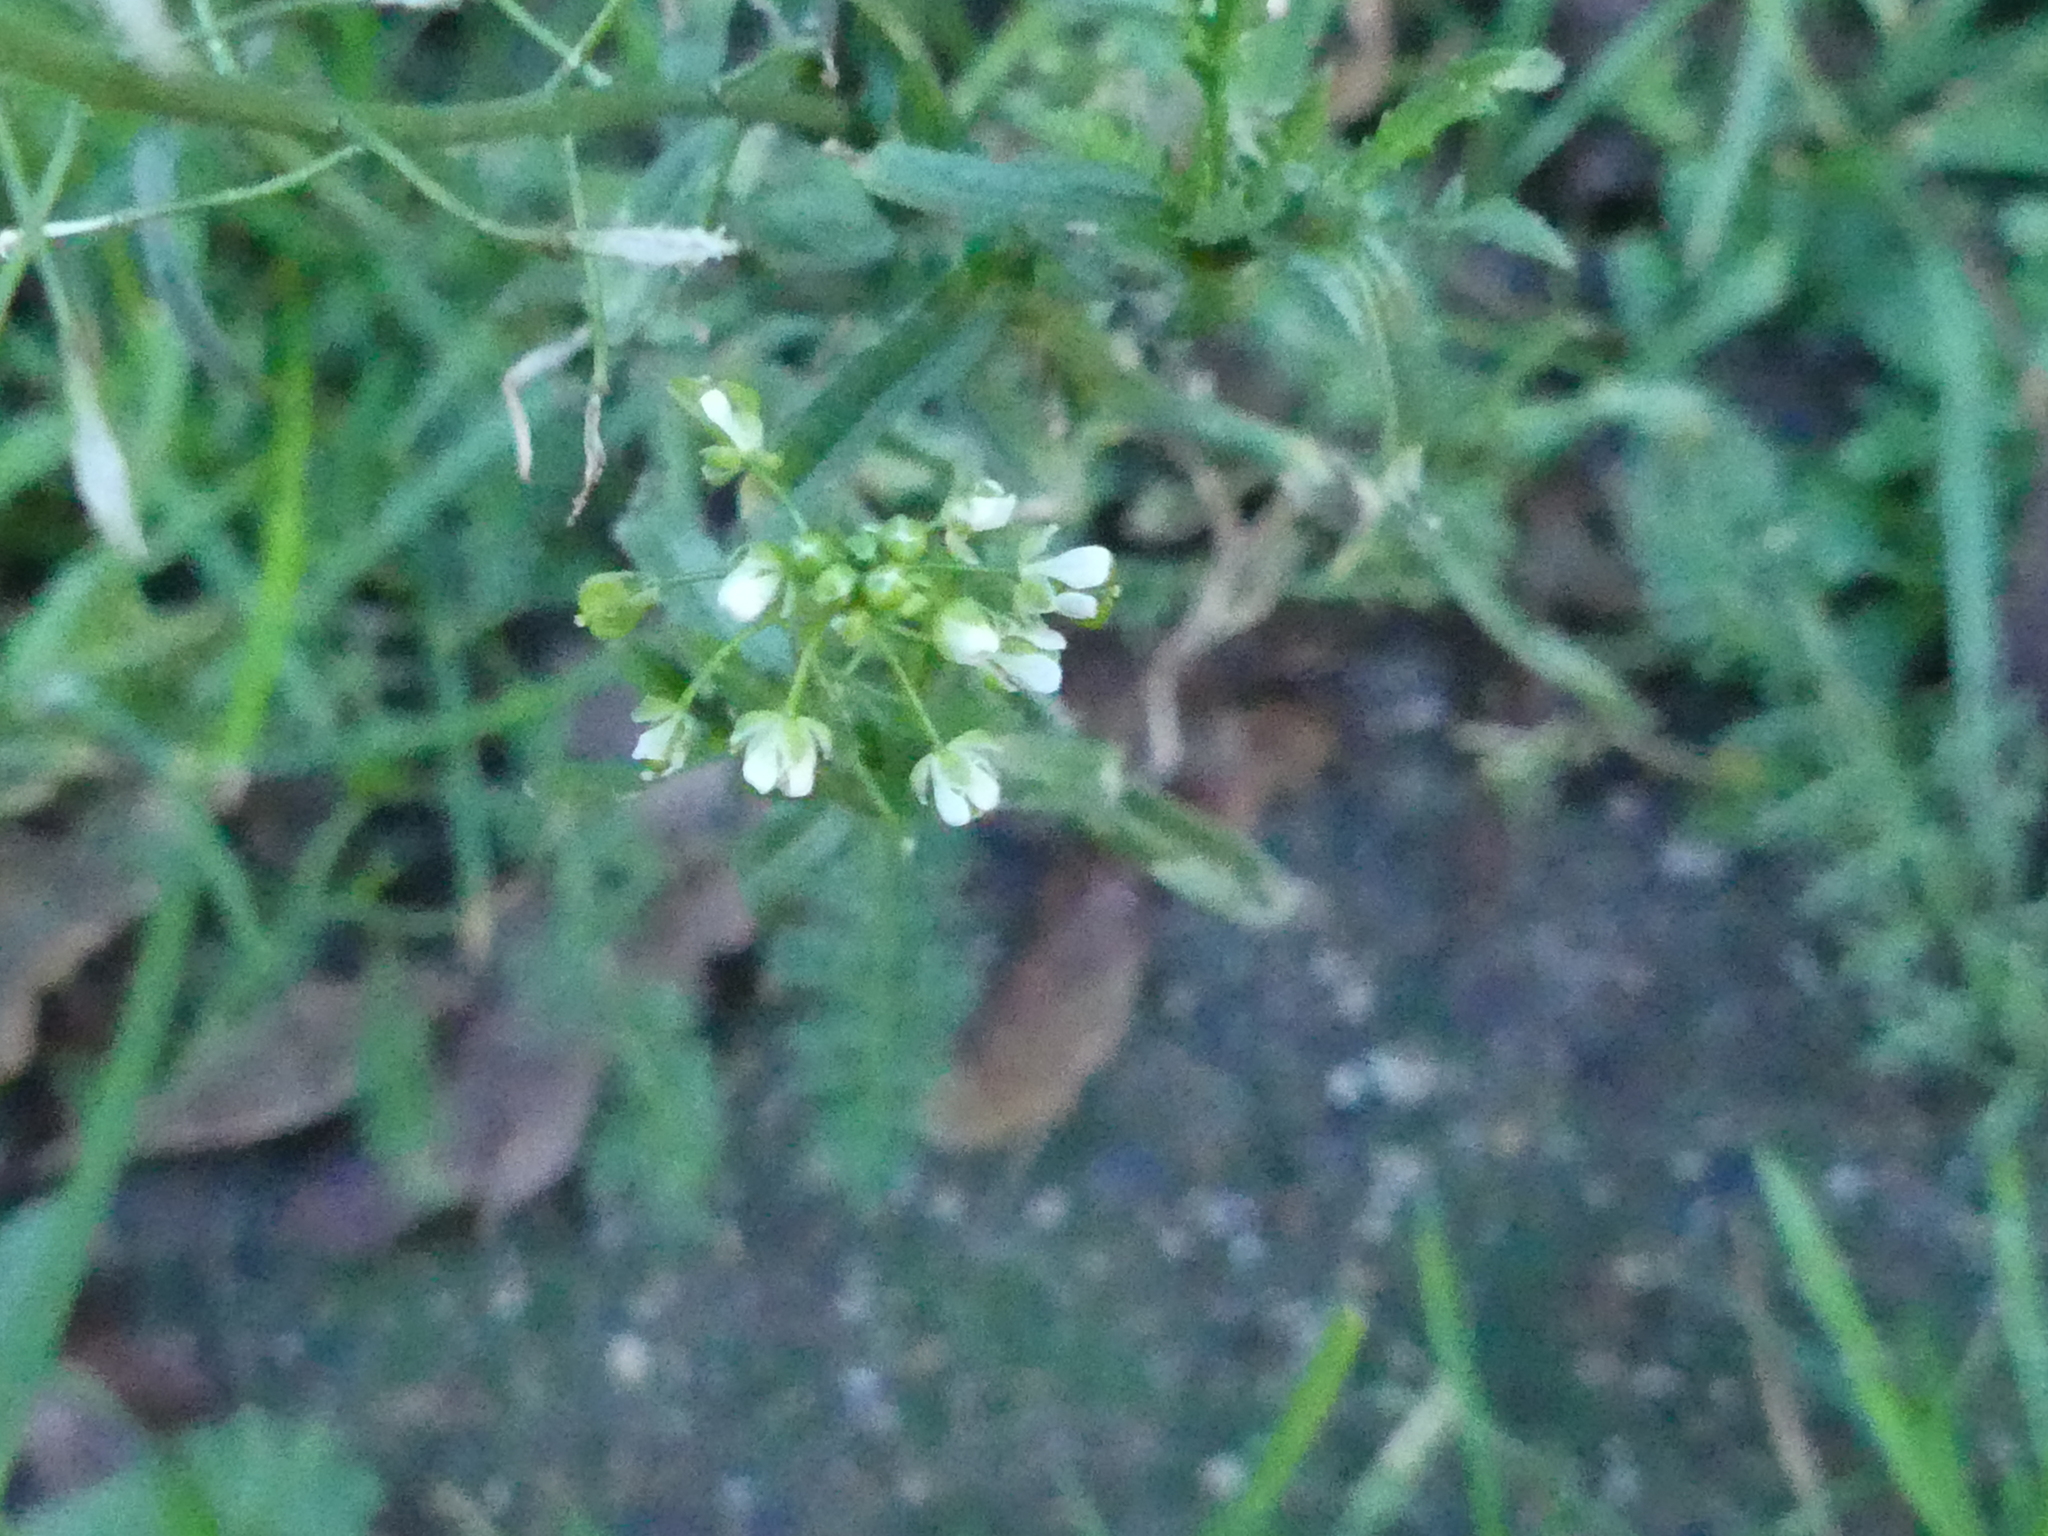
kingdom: Plantae
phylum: Tracheophyta
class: Magnoliopsida
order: Brassicales
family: Brassicaceae
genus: Capsella
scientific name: Capsella bursa-pastoris
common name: Shepherd's purse
